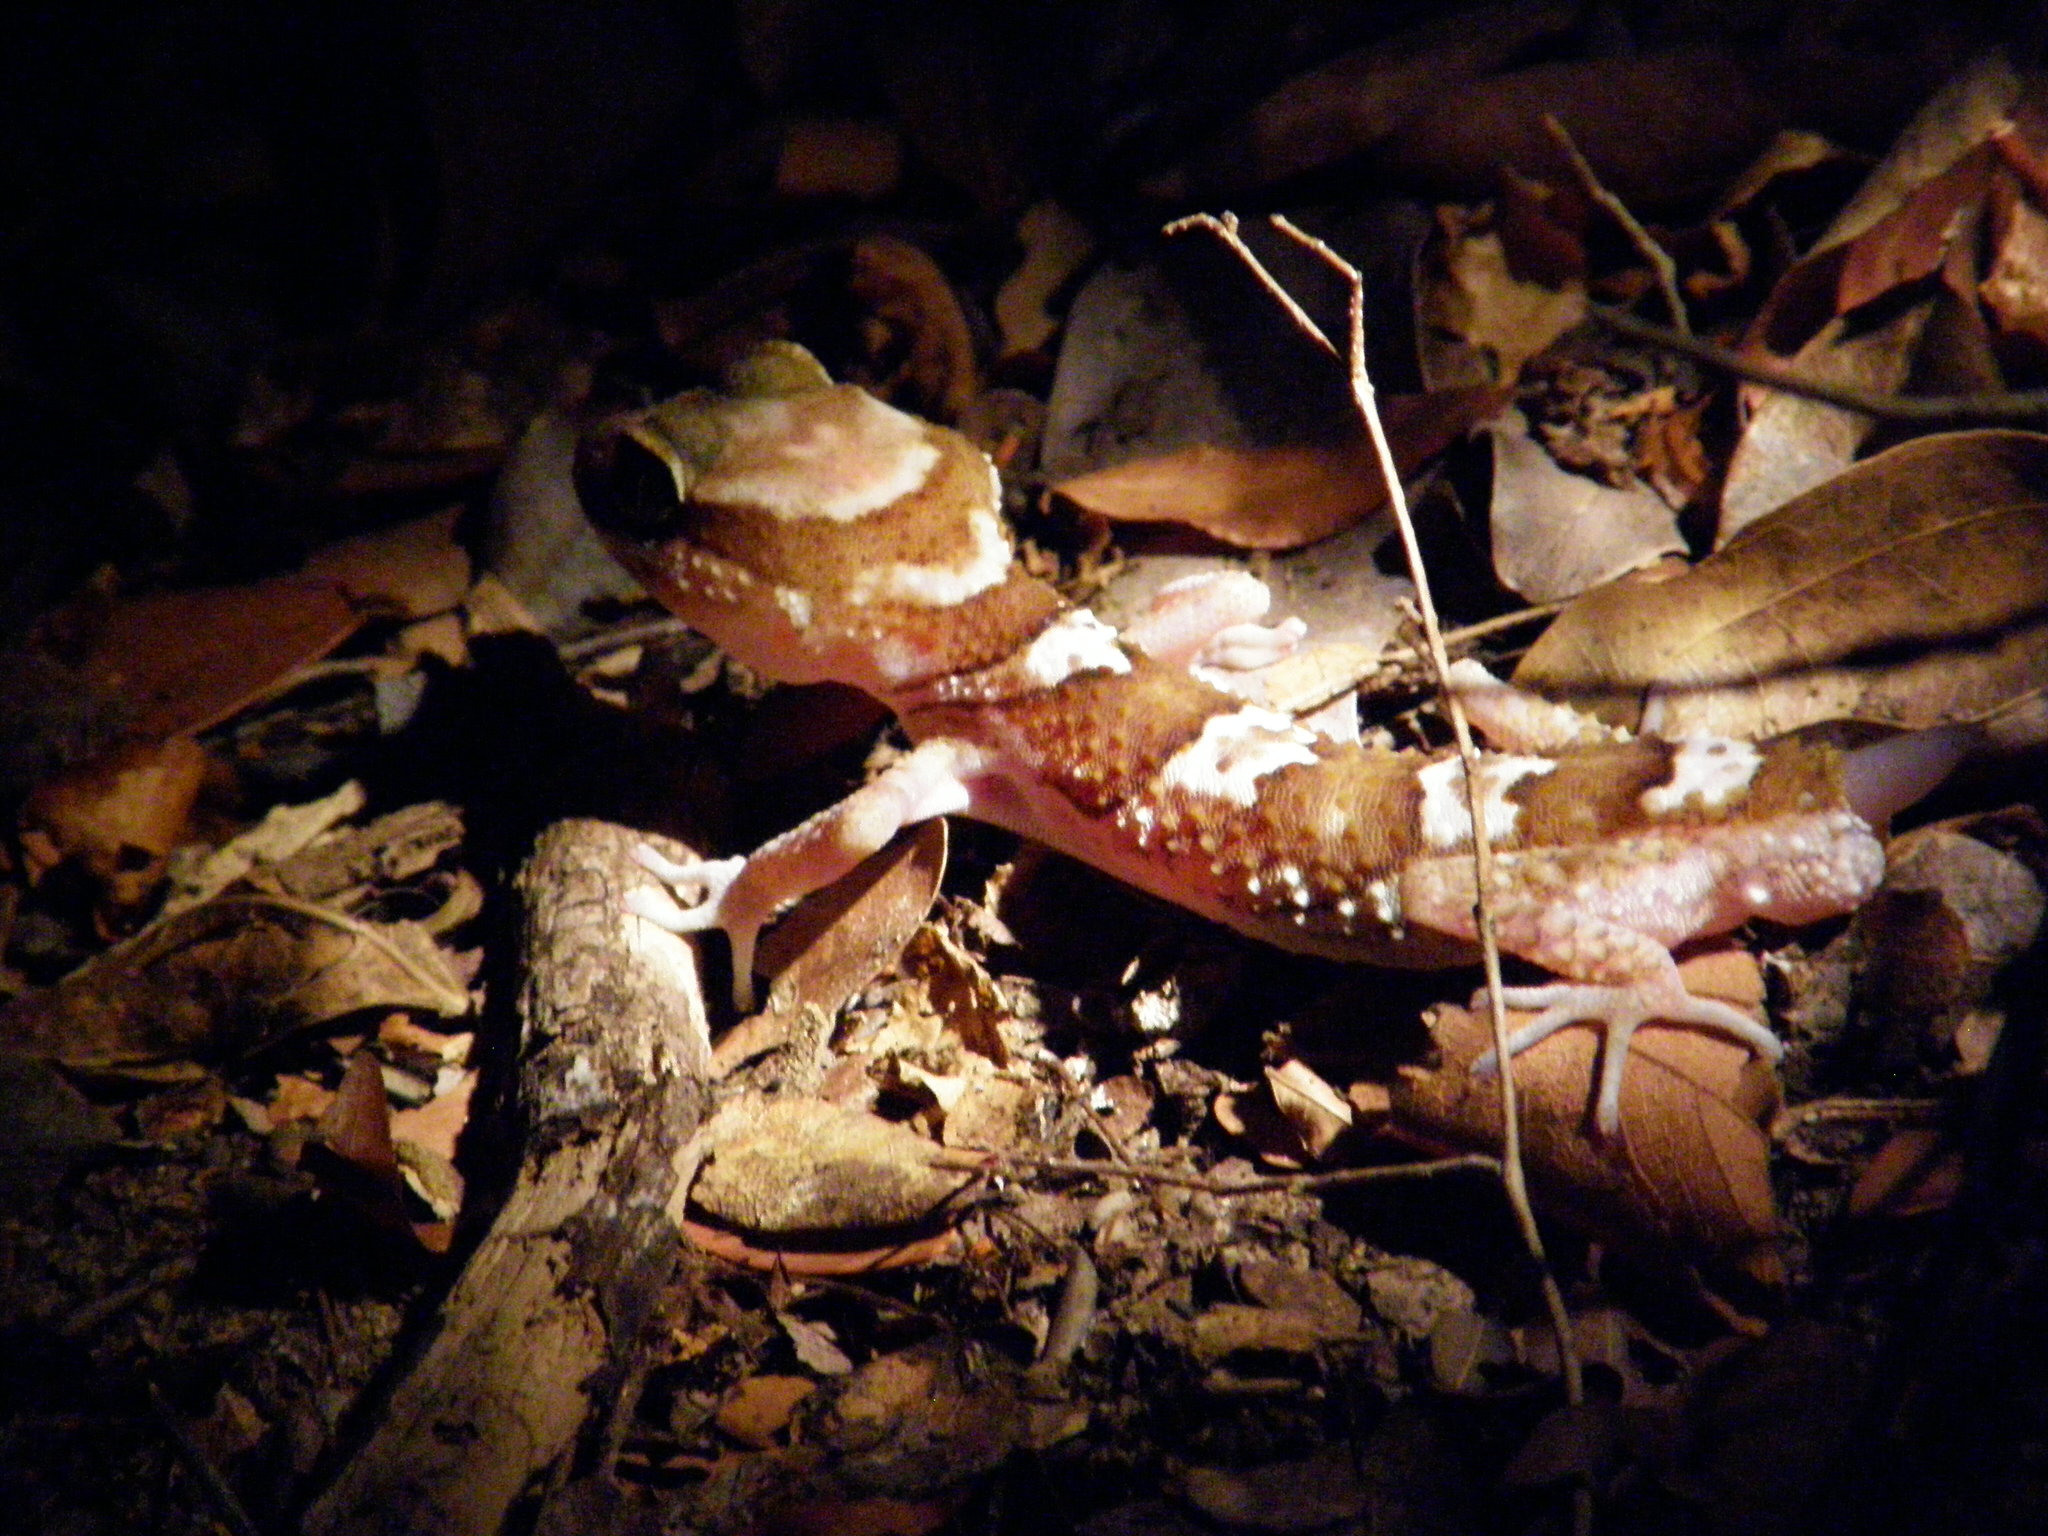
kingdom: Animalia
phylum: Chordata
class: Squamata
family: Gekkonidae
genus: Paroedura
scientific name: Paroedura picta
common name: Panther gecko
